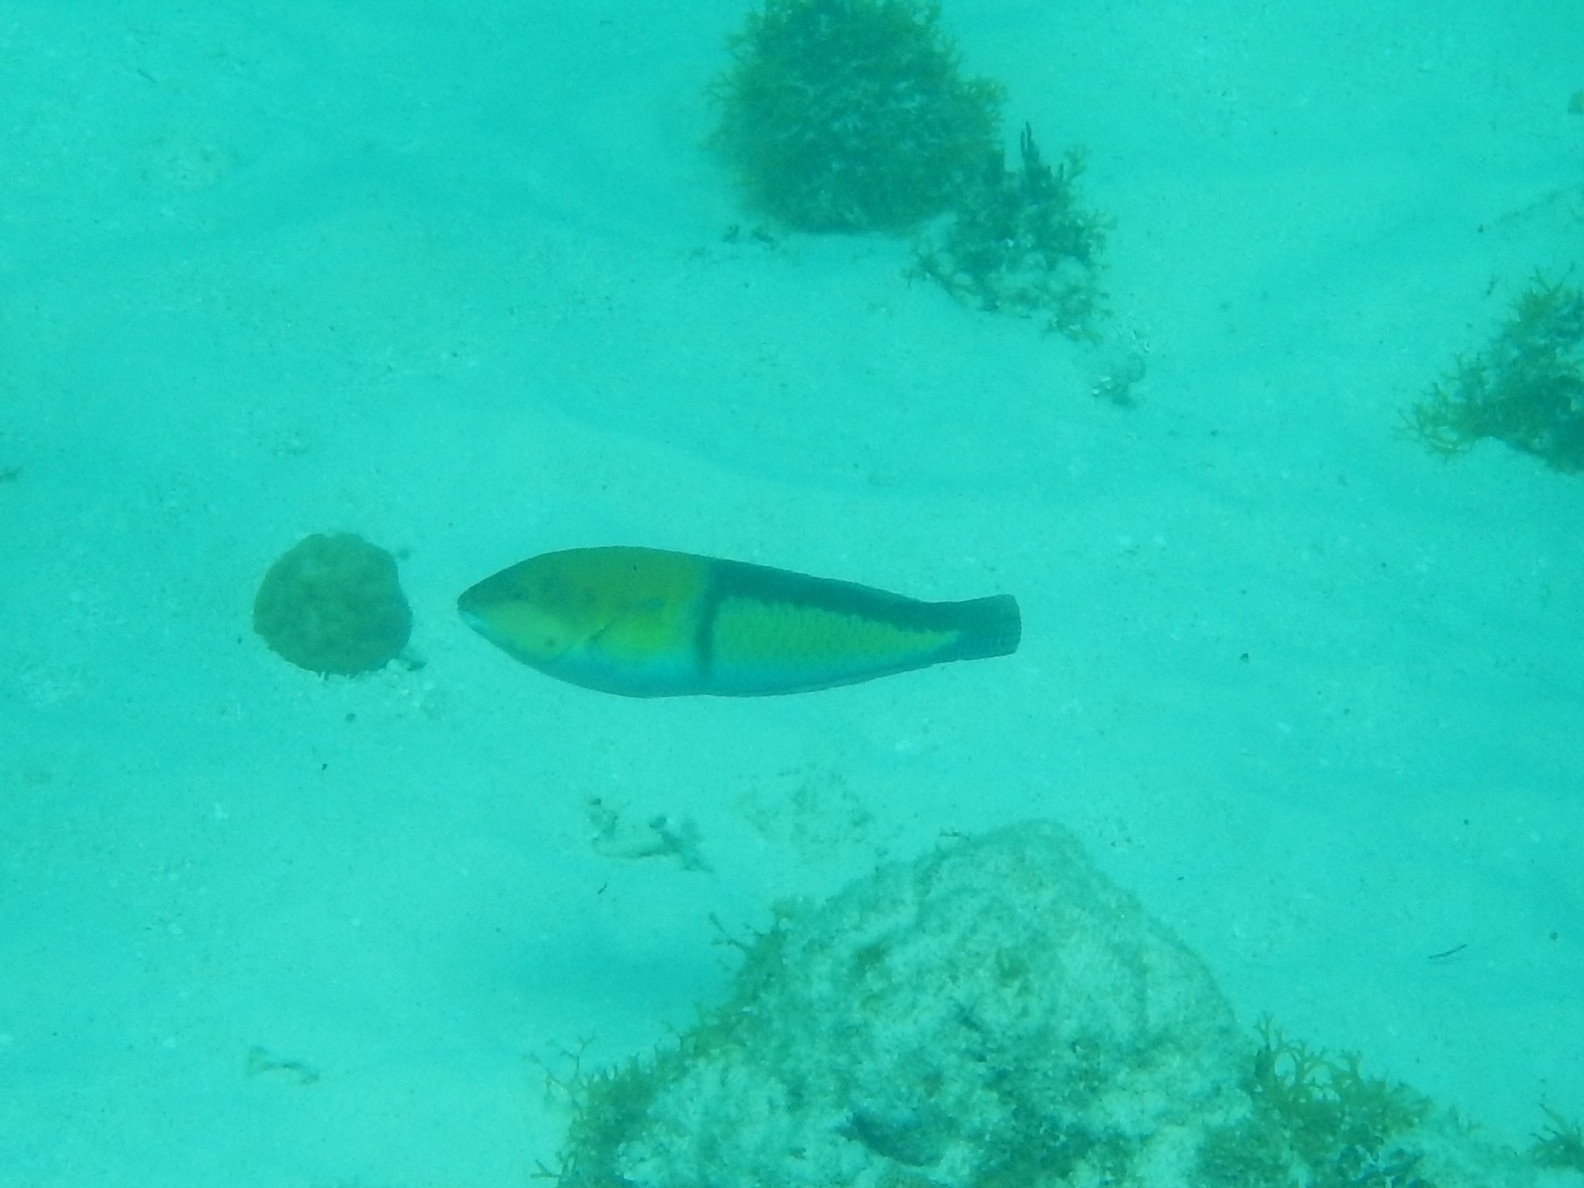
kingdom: Animalia
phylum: Chordata
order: Perciformes
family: Labridae
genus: Halichoeres
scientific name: Halichoeres garnoti
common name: Yellowhead wrasse
